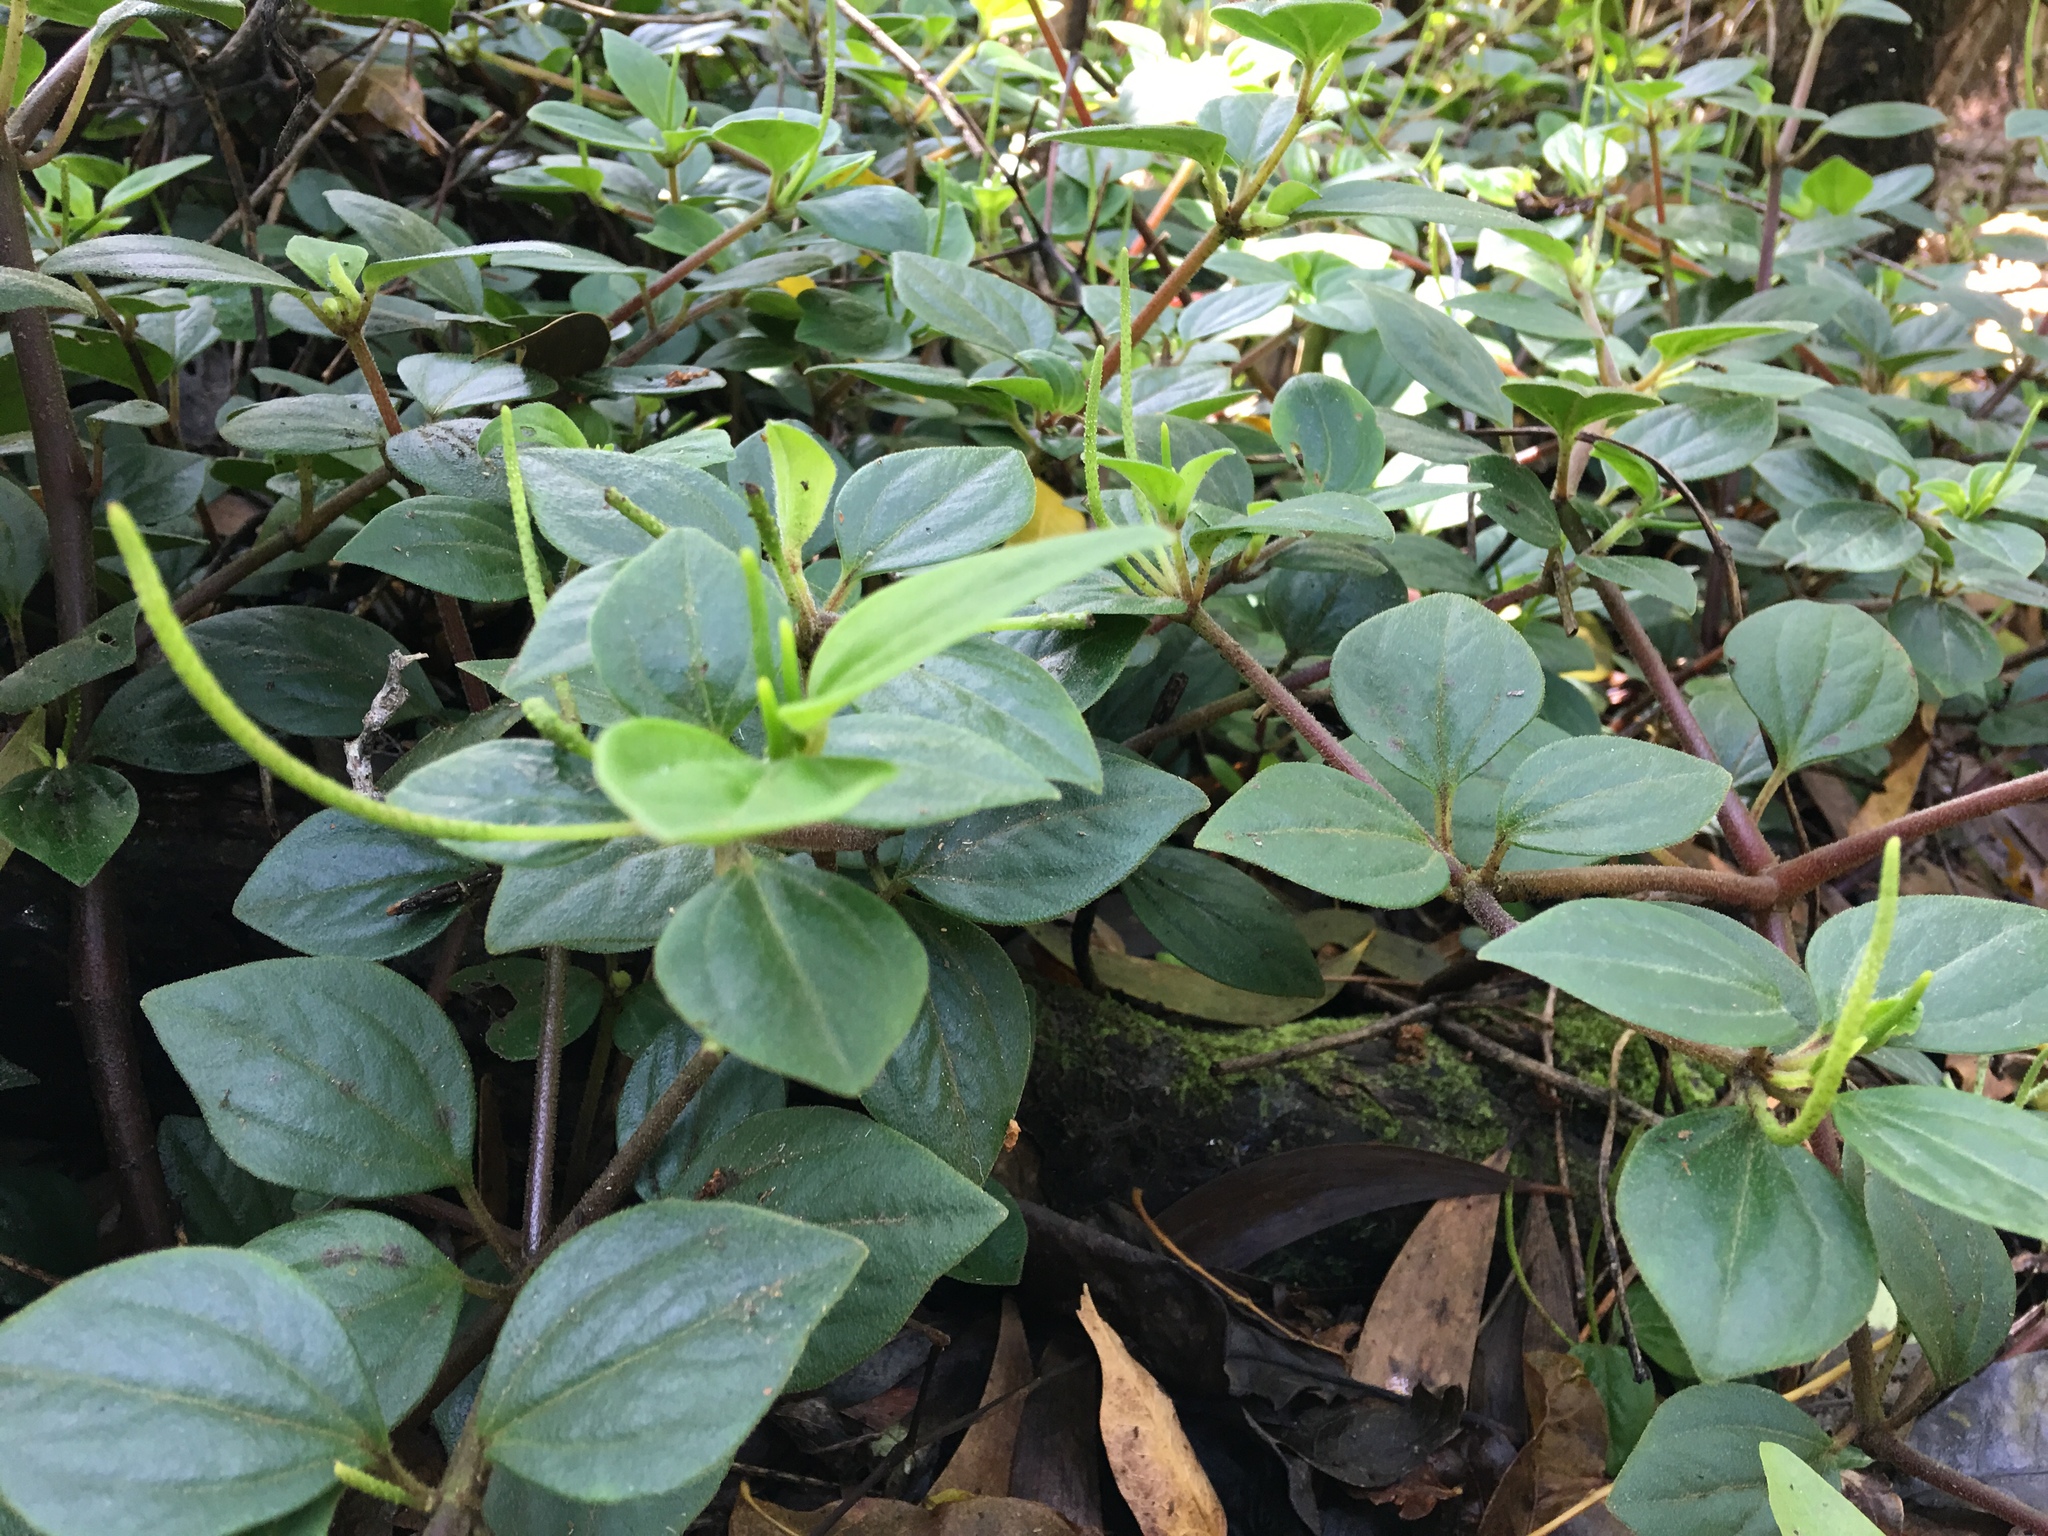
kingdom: Plantae
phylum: Tracheophyta
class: Magnoliopsida
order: Piperales
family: Piperaceae
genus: Peperomia
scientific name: Peperomia cookiana
